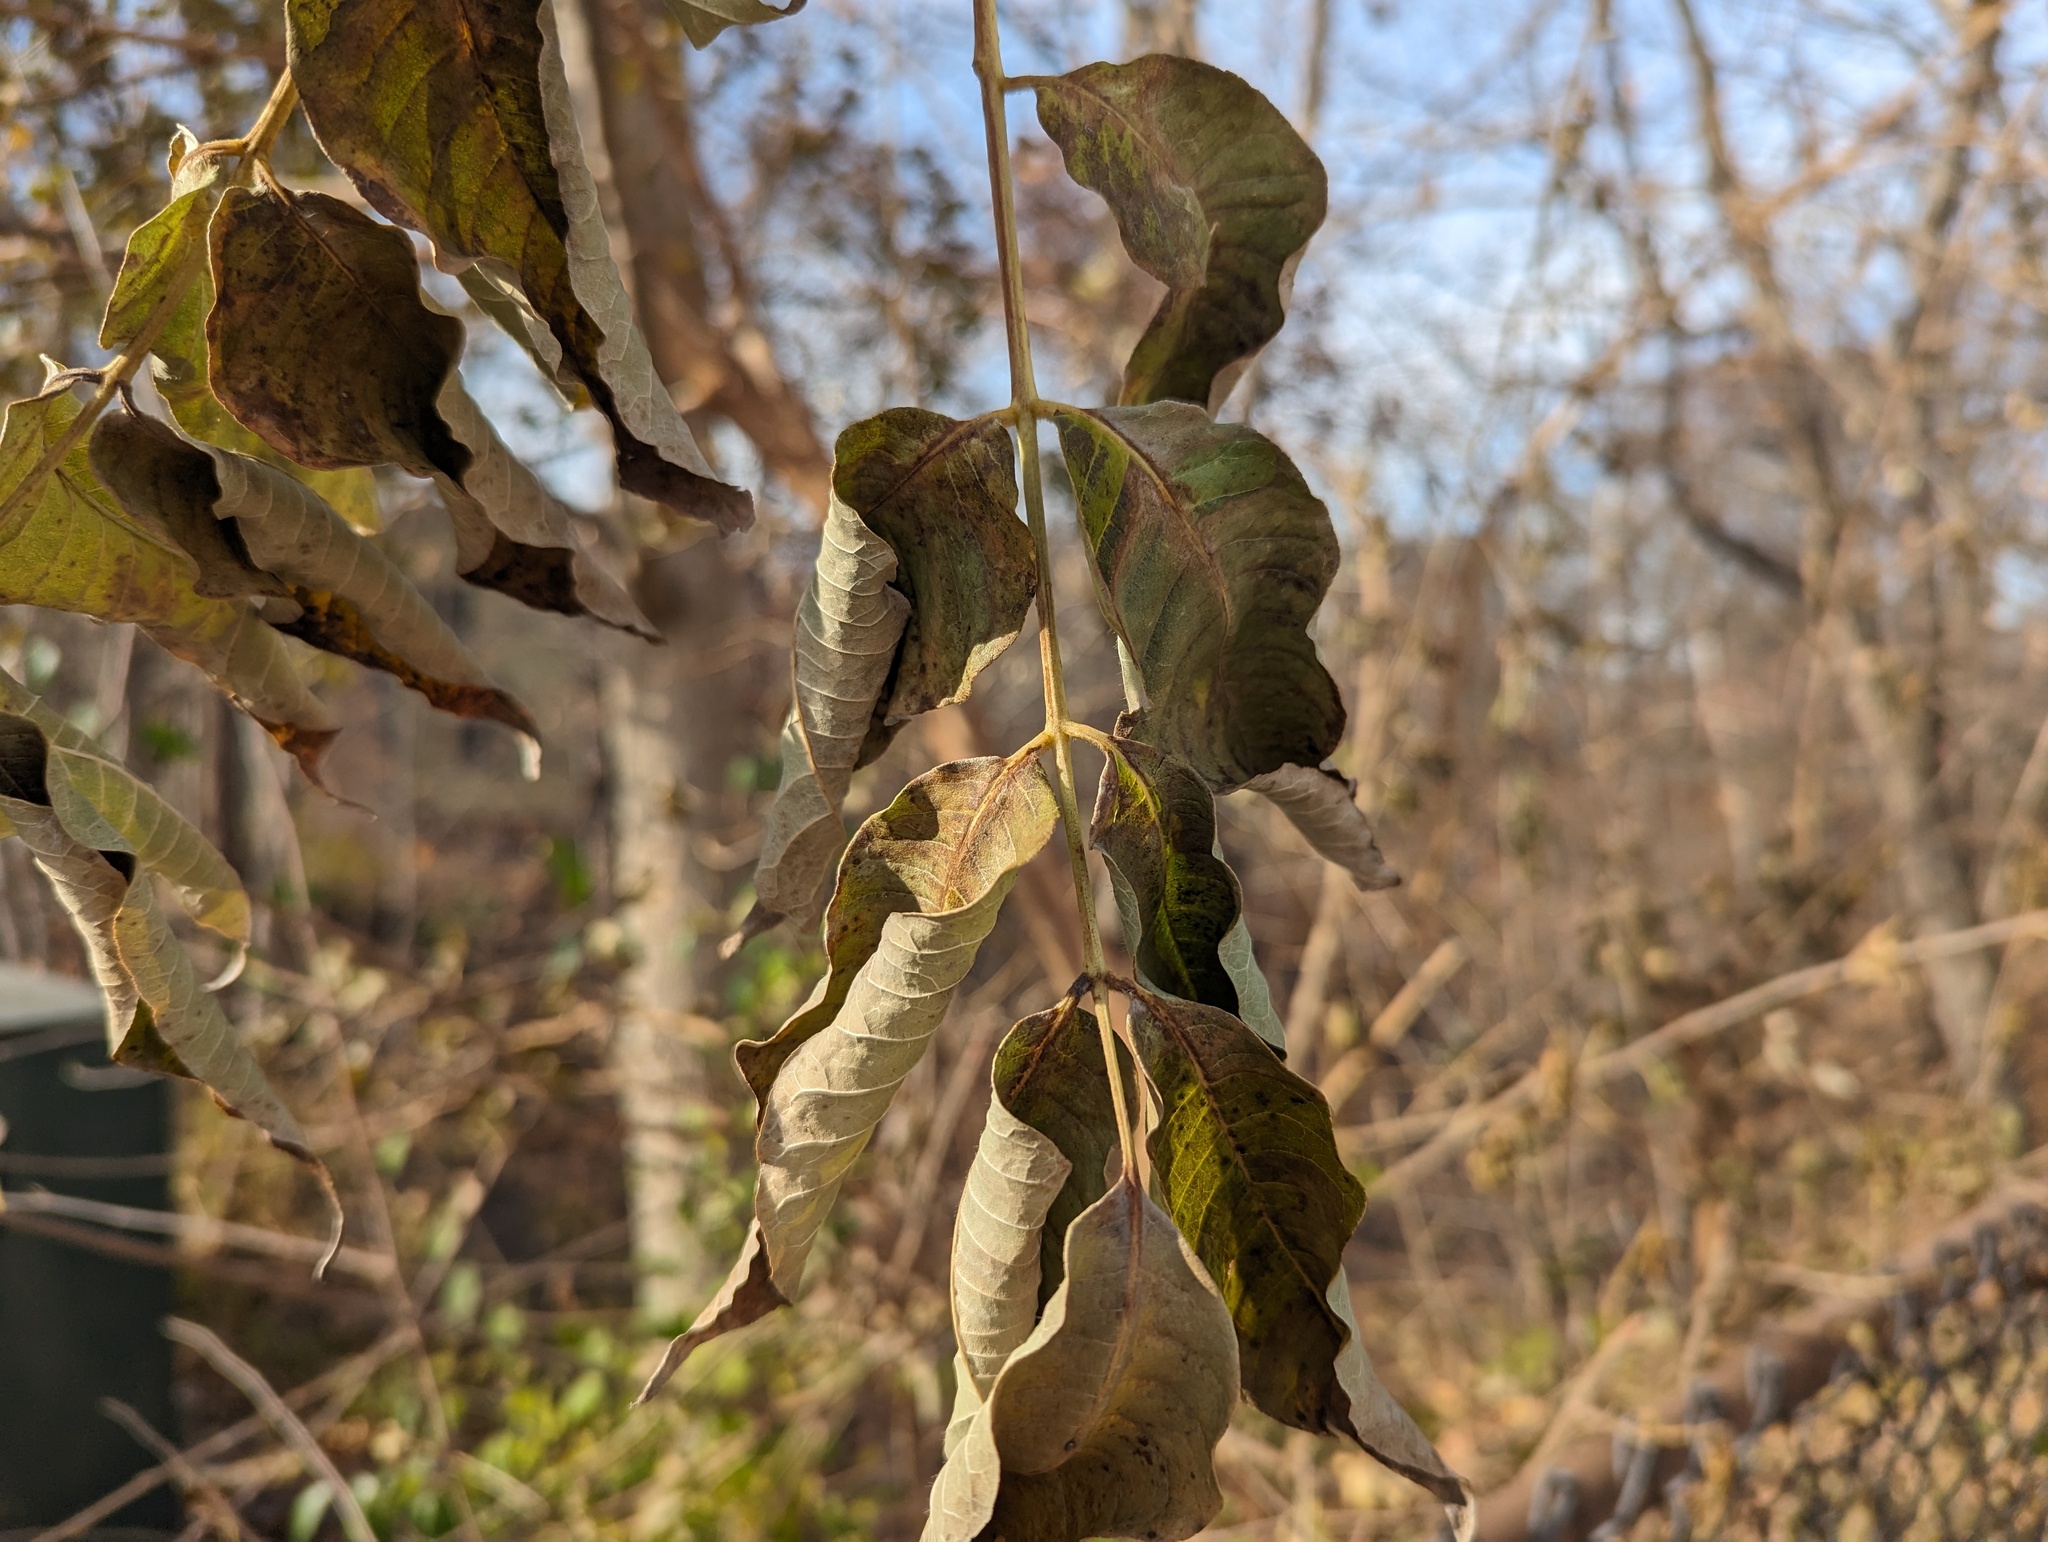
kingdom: Plantae
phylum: Tracheophyta
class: Magnoliopsida
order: Sapindales
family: Rutaceae
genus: Phellodendron
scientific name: Phellodendron amurense
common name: Amur corktree
